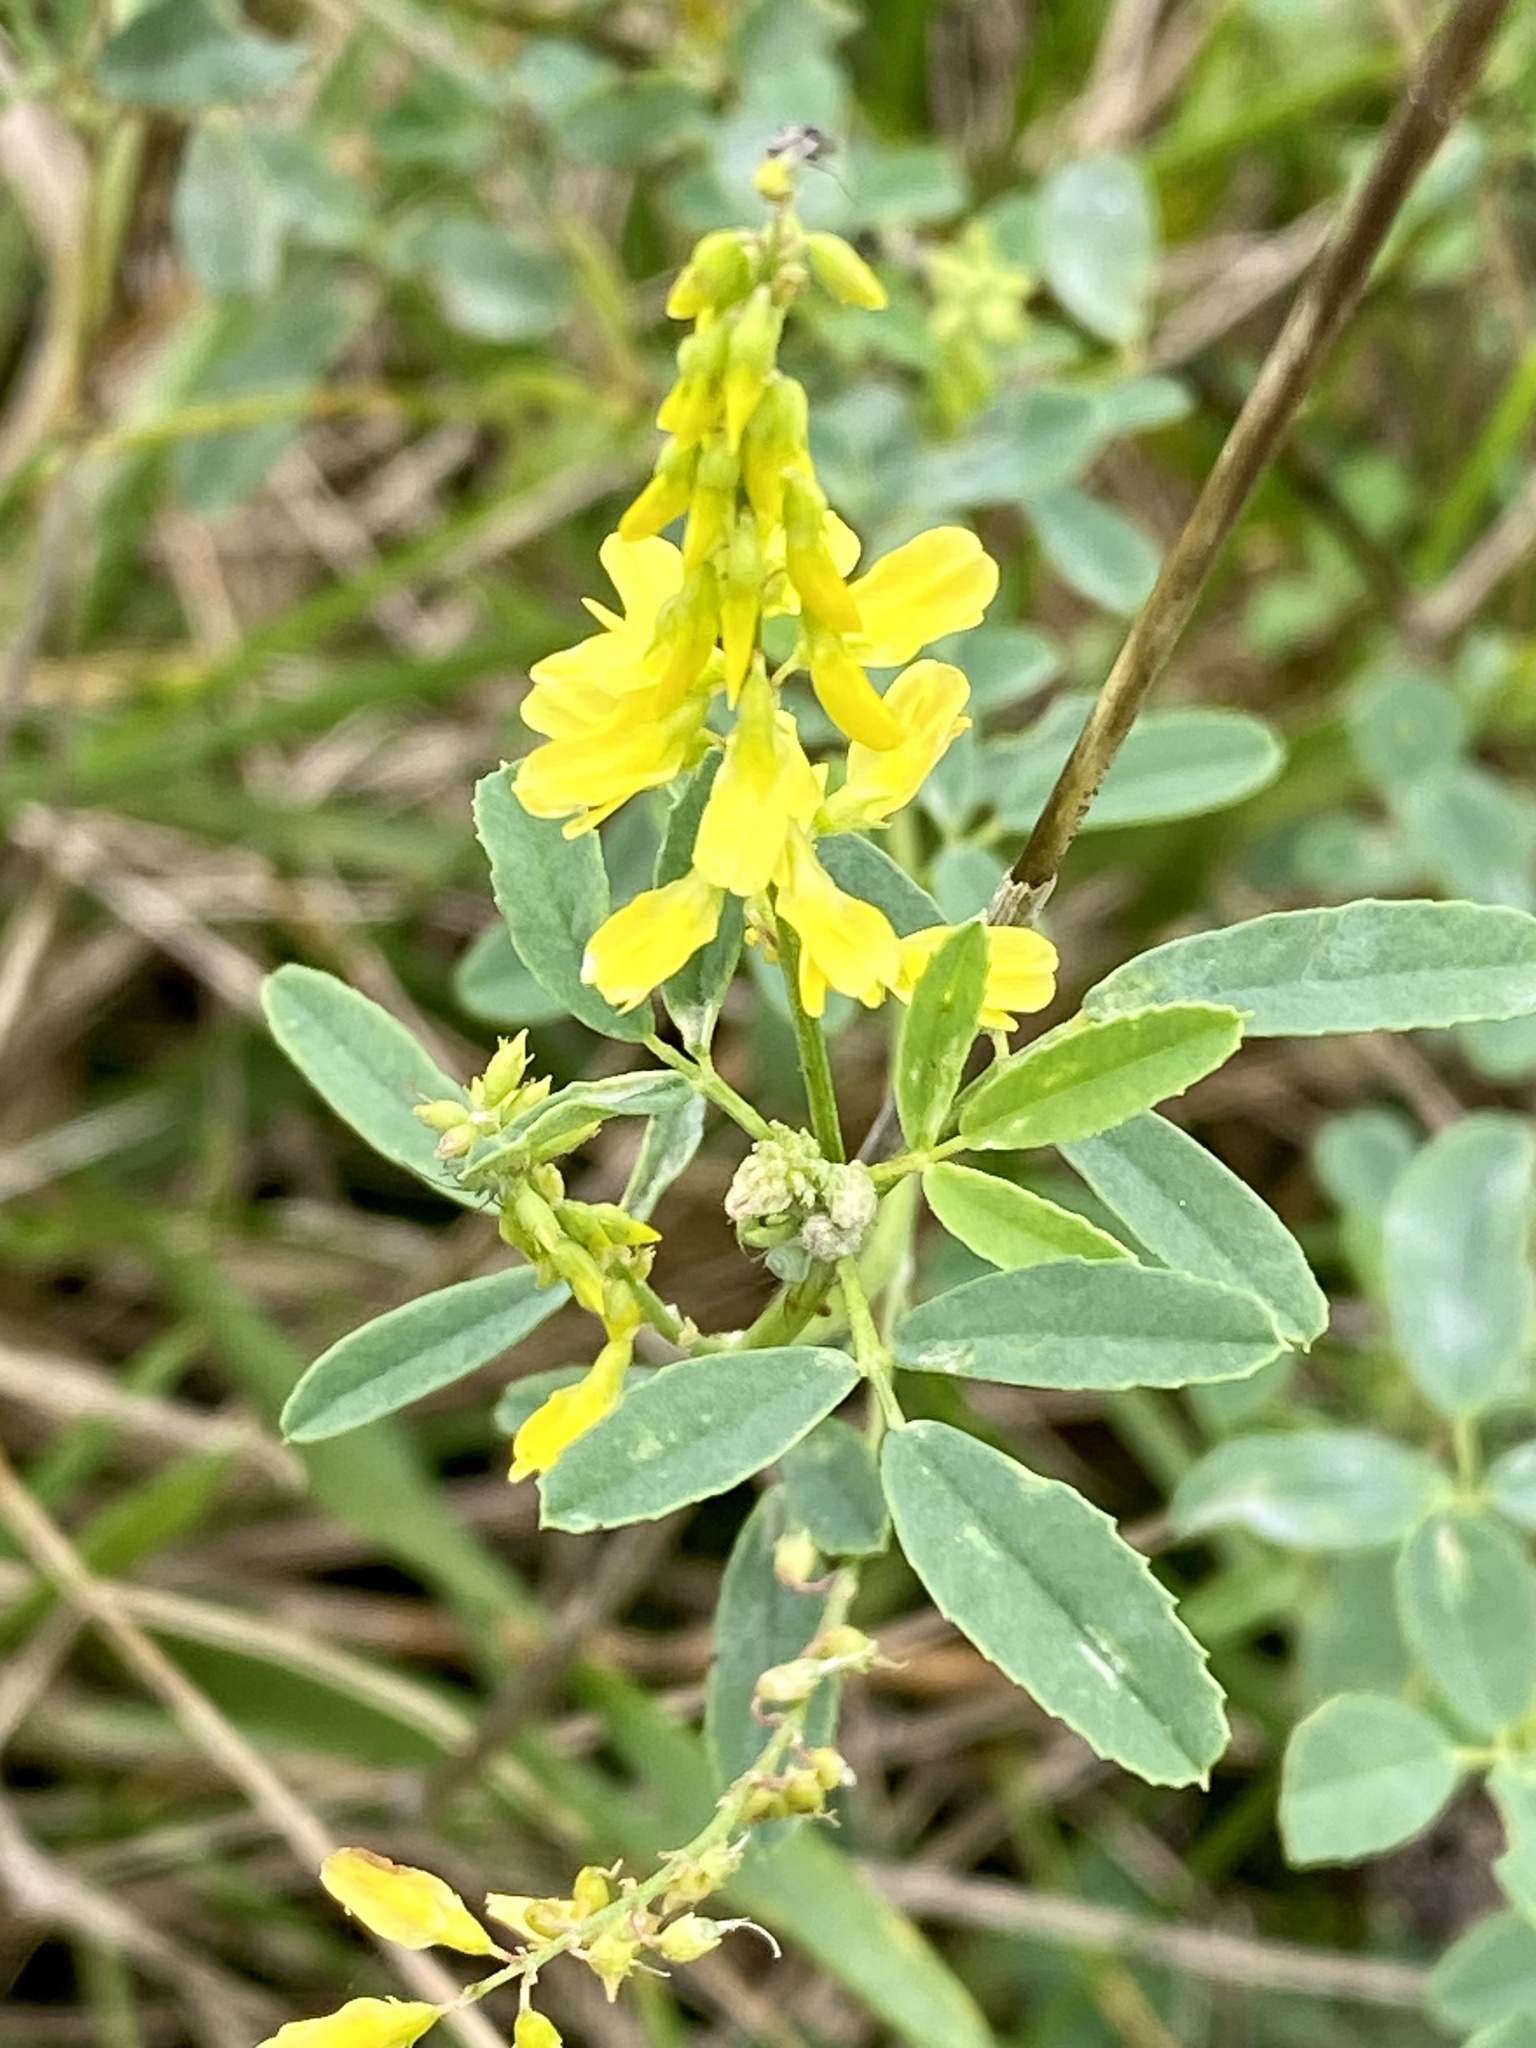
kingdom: Plantae
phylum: Tracheophyta
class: Magnoliopsida
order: Fabales
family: Fabaceae
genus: Melilotus
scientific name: Melilotus officinalis
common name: Sweetclover
